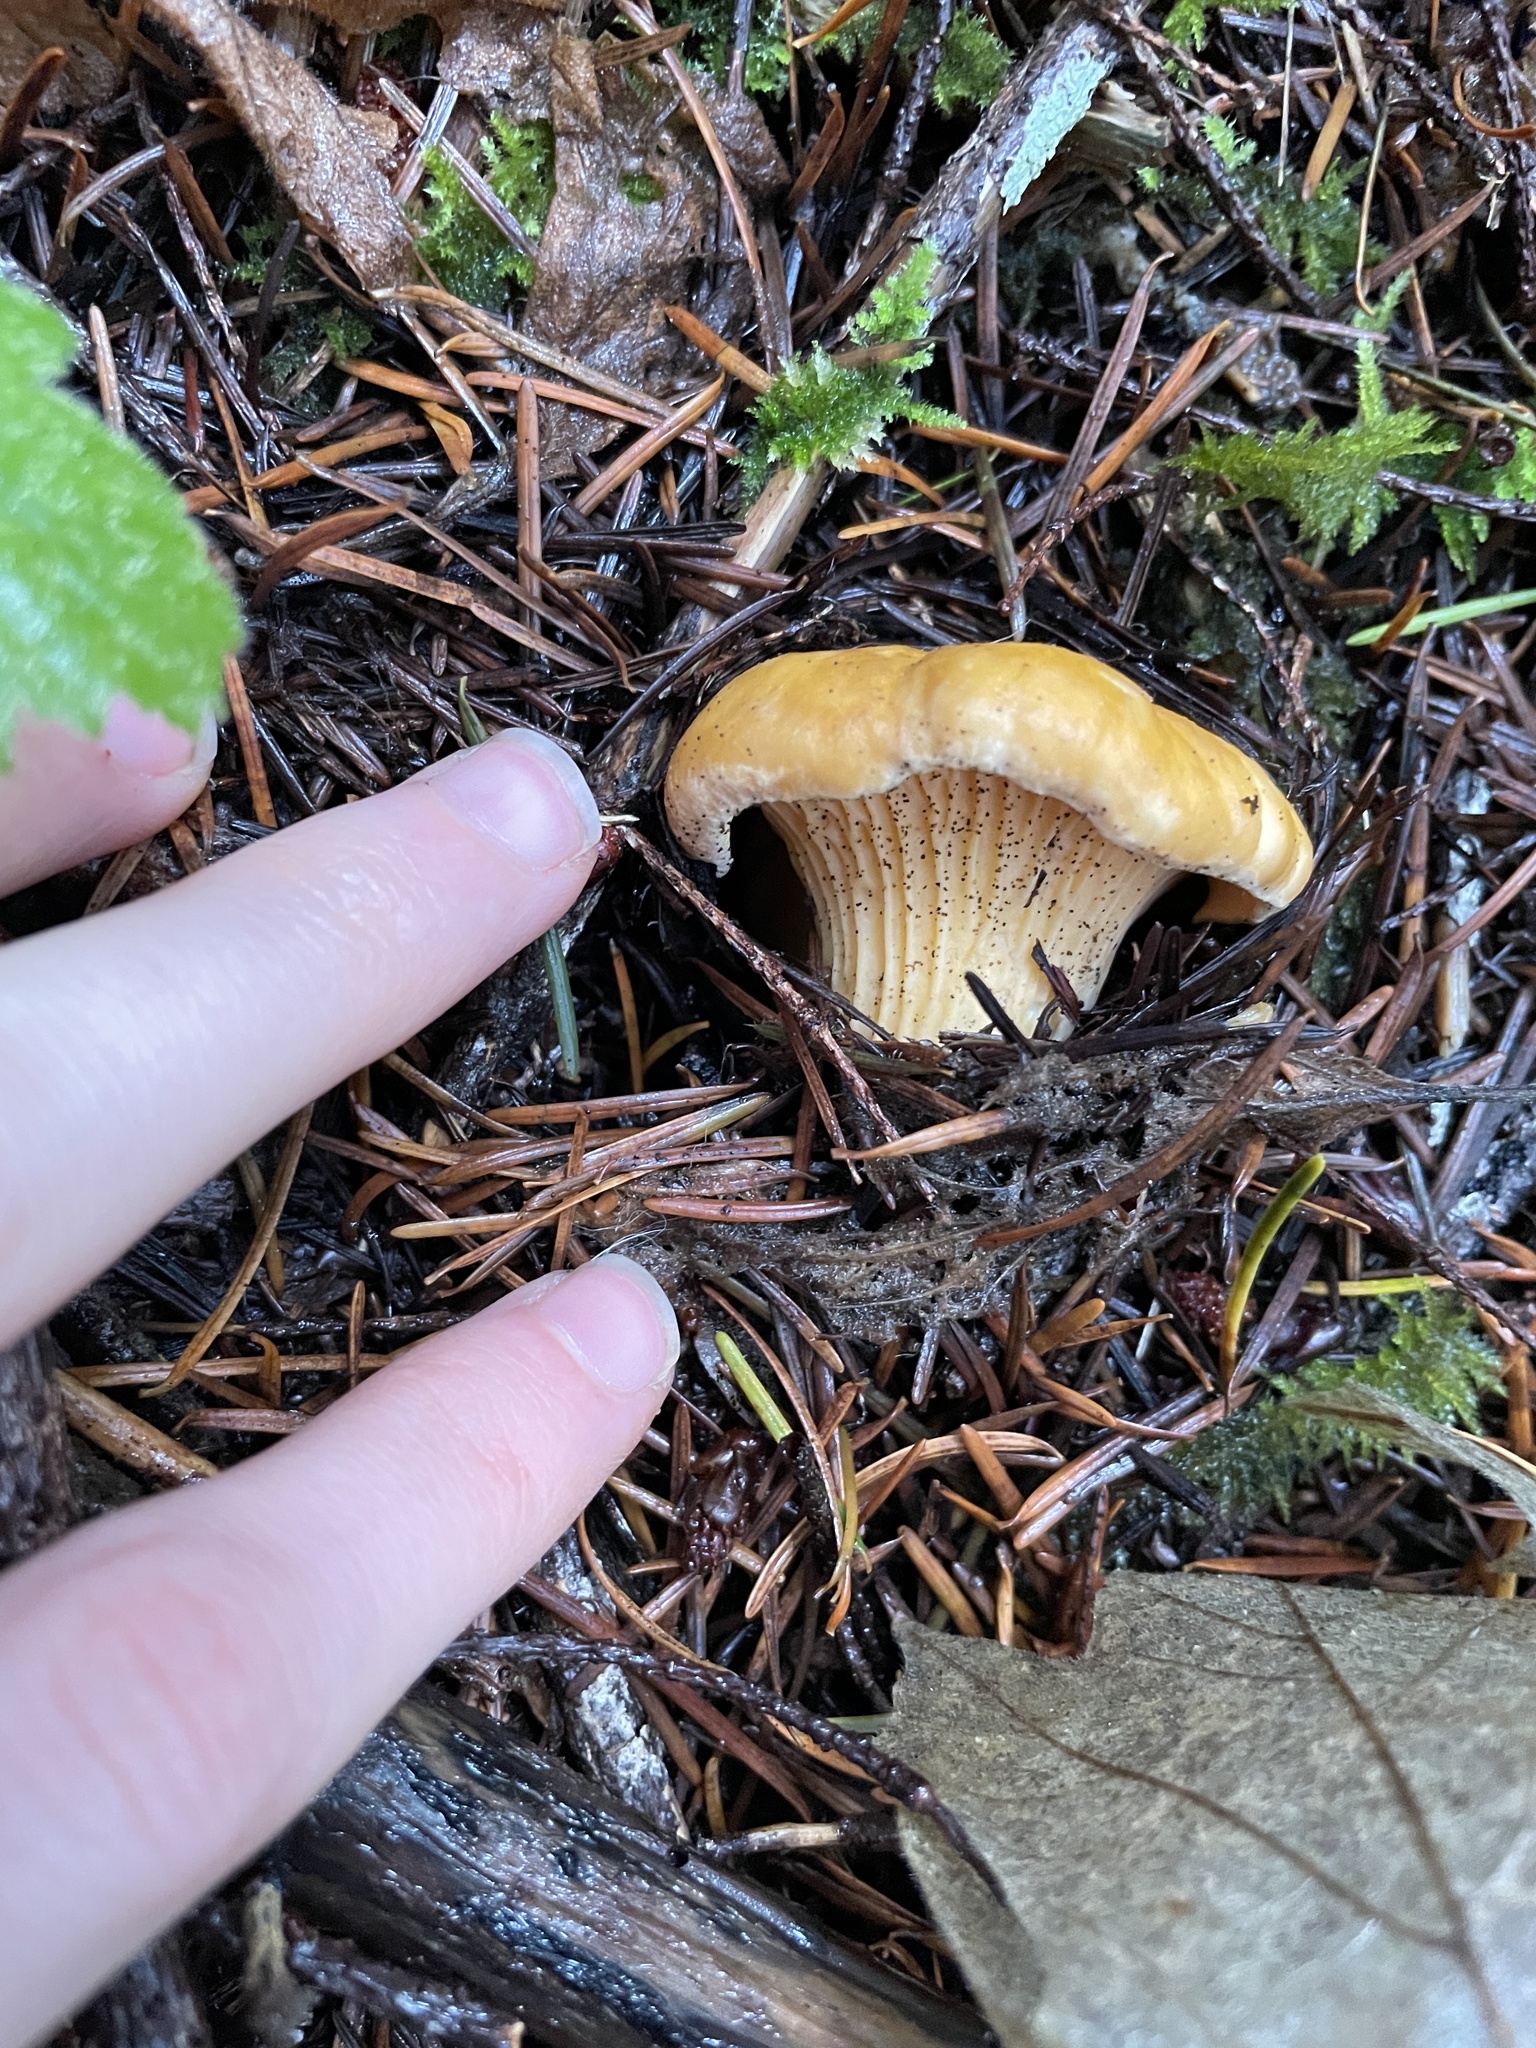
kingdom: Fungi
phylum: Basidiomycota
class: Agaricomycetes
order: Cantharellales
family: Hydnaceae
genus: Cantharellus
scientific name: Cantharellus formosus
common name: Pacific golden chanterelle
